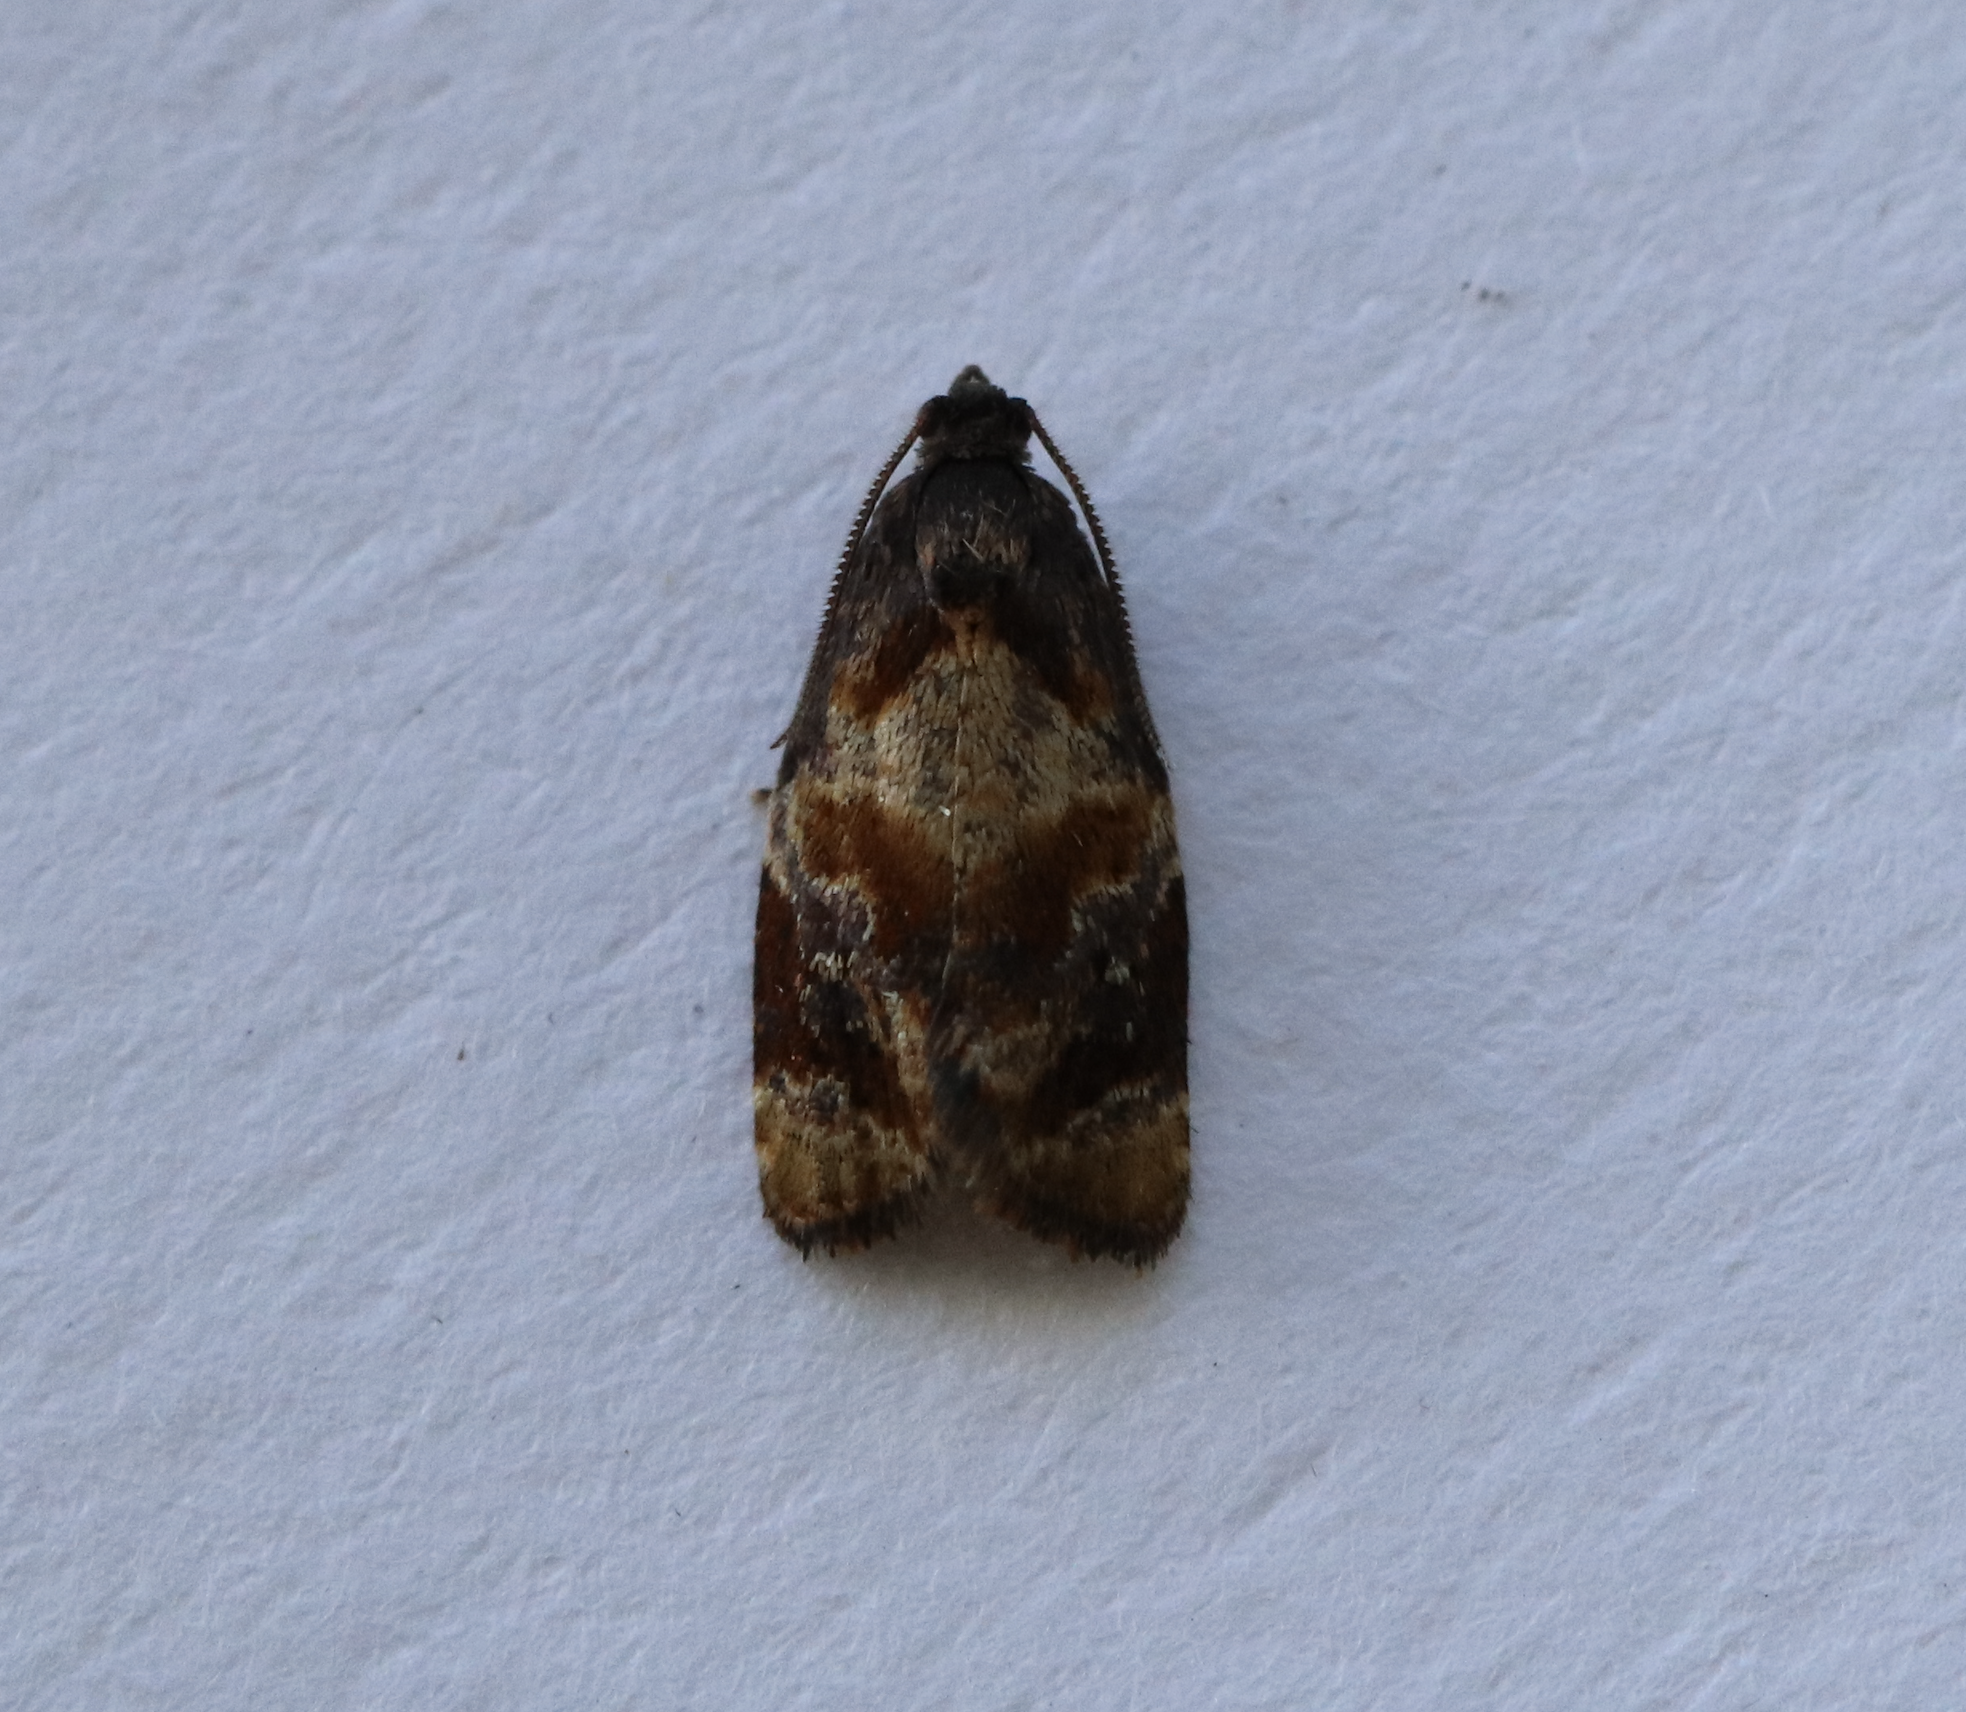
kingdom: Animalia
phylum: Arthropoda
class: Insecta
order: Lepidoptera
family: Tortricidae
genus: Ditula
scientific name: Ditula angustiorana
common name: Red-barred tortrix
